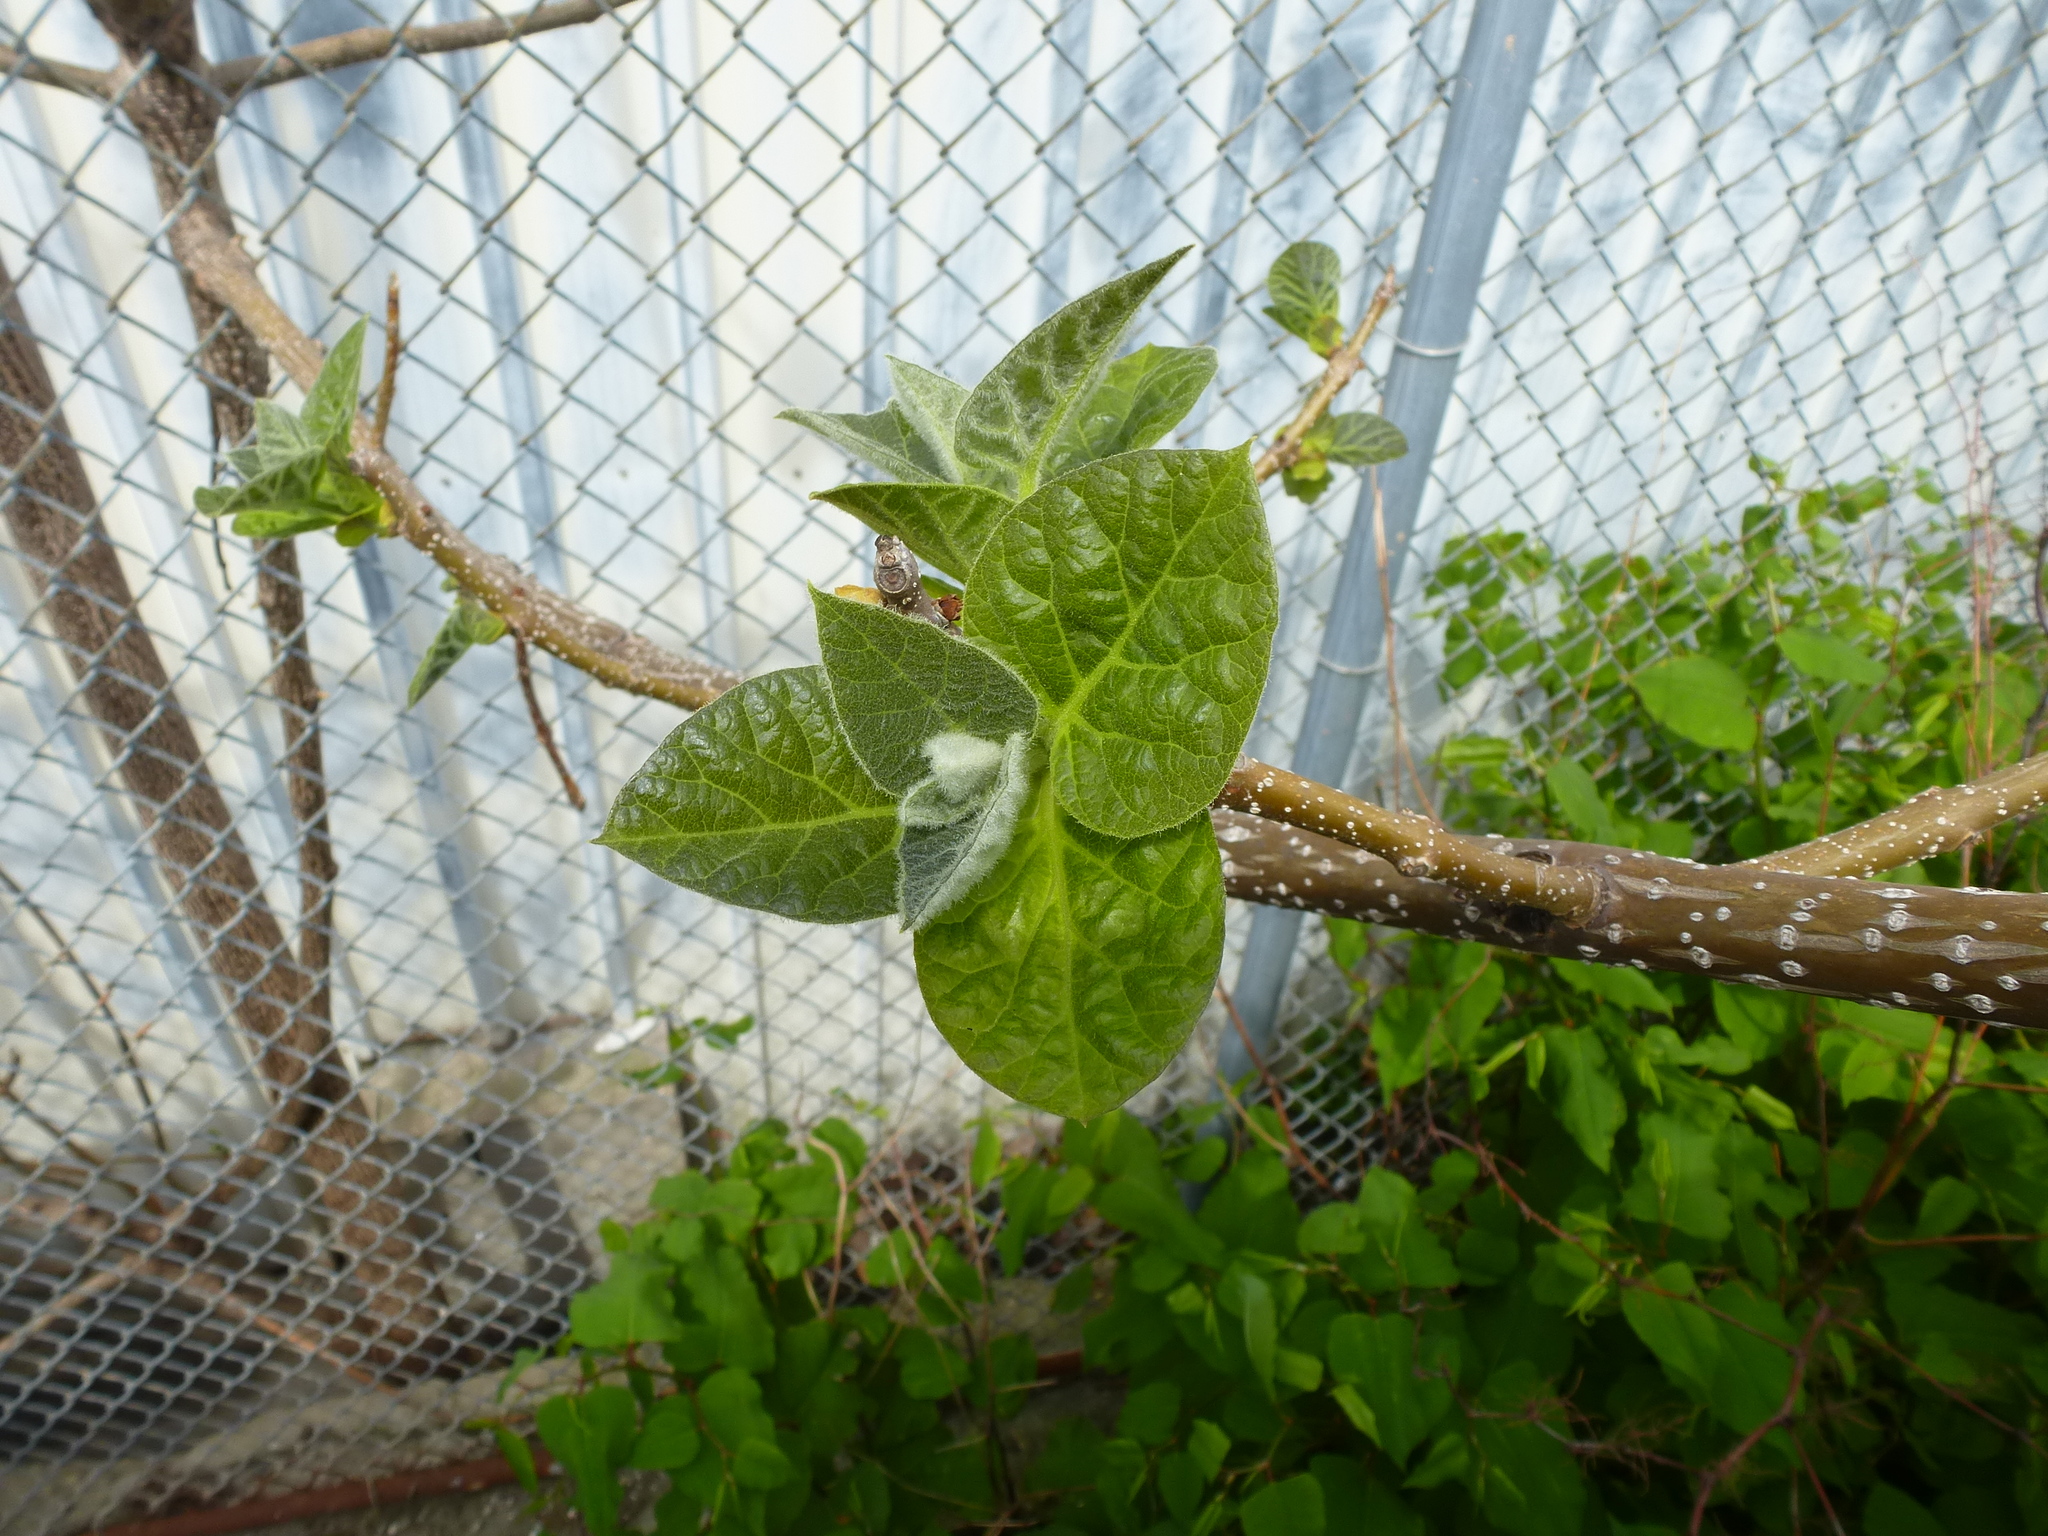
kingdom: Plantae
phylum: Tracheophyta
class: Magnoliopsida
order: Lamiales
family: Paulowniaceae
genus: Paulownia
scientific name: Paulownia tomentosa
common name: Foxglove-tree
